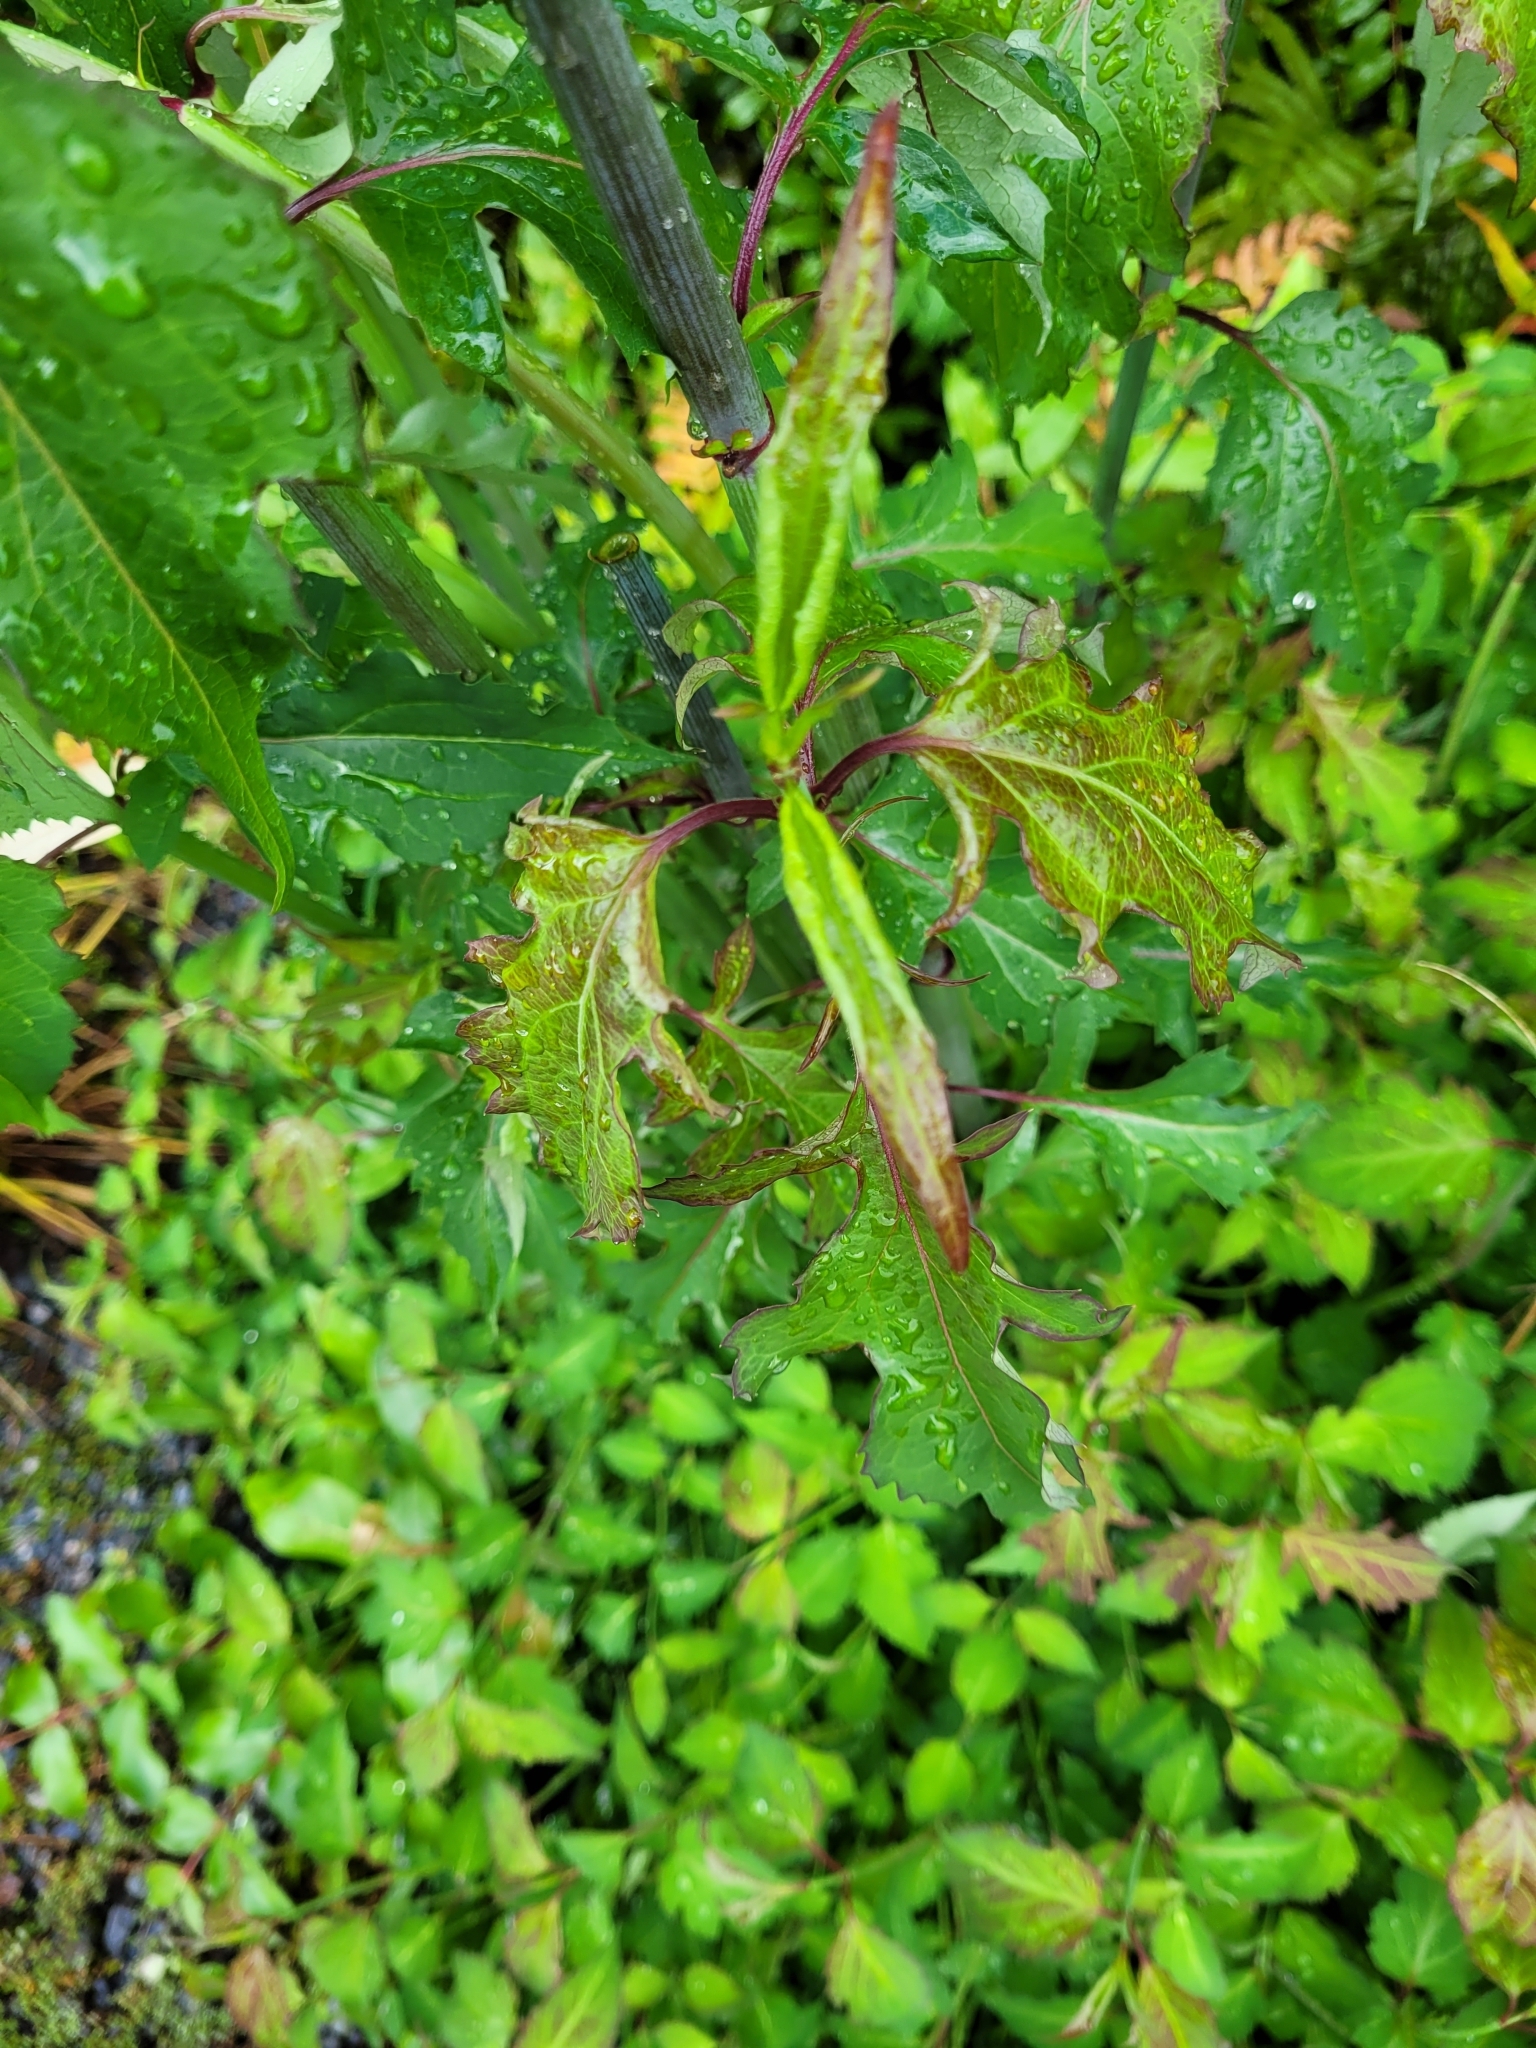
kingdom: Plantae
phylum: Tracheophyta
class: Magnoliopsida
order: Dipsacales
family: Caprifoliaceae
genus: Leycesteria
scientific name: Leycesteria formosa
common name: Himalayan honeysuckle
